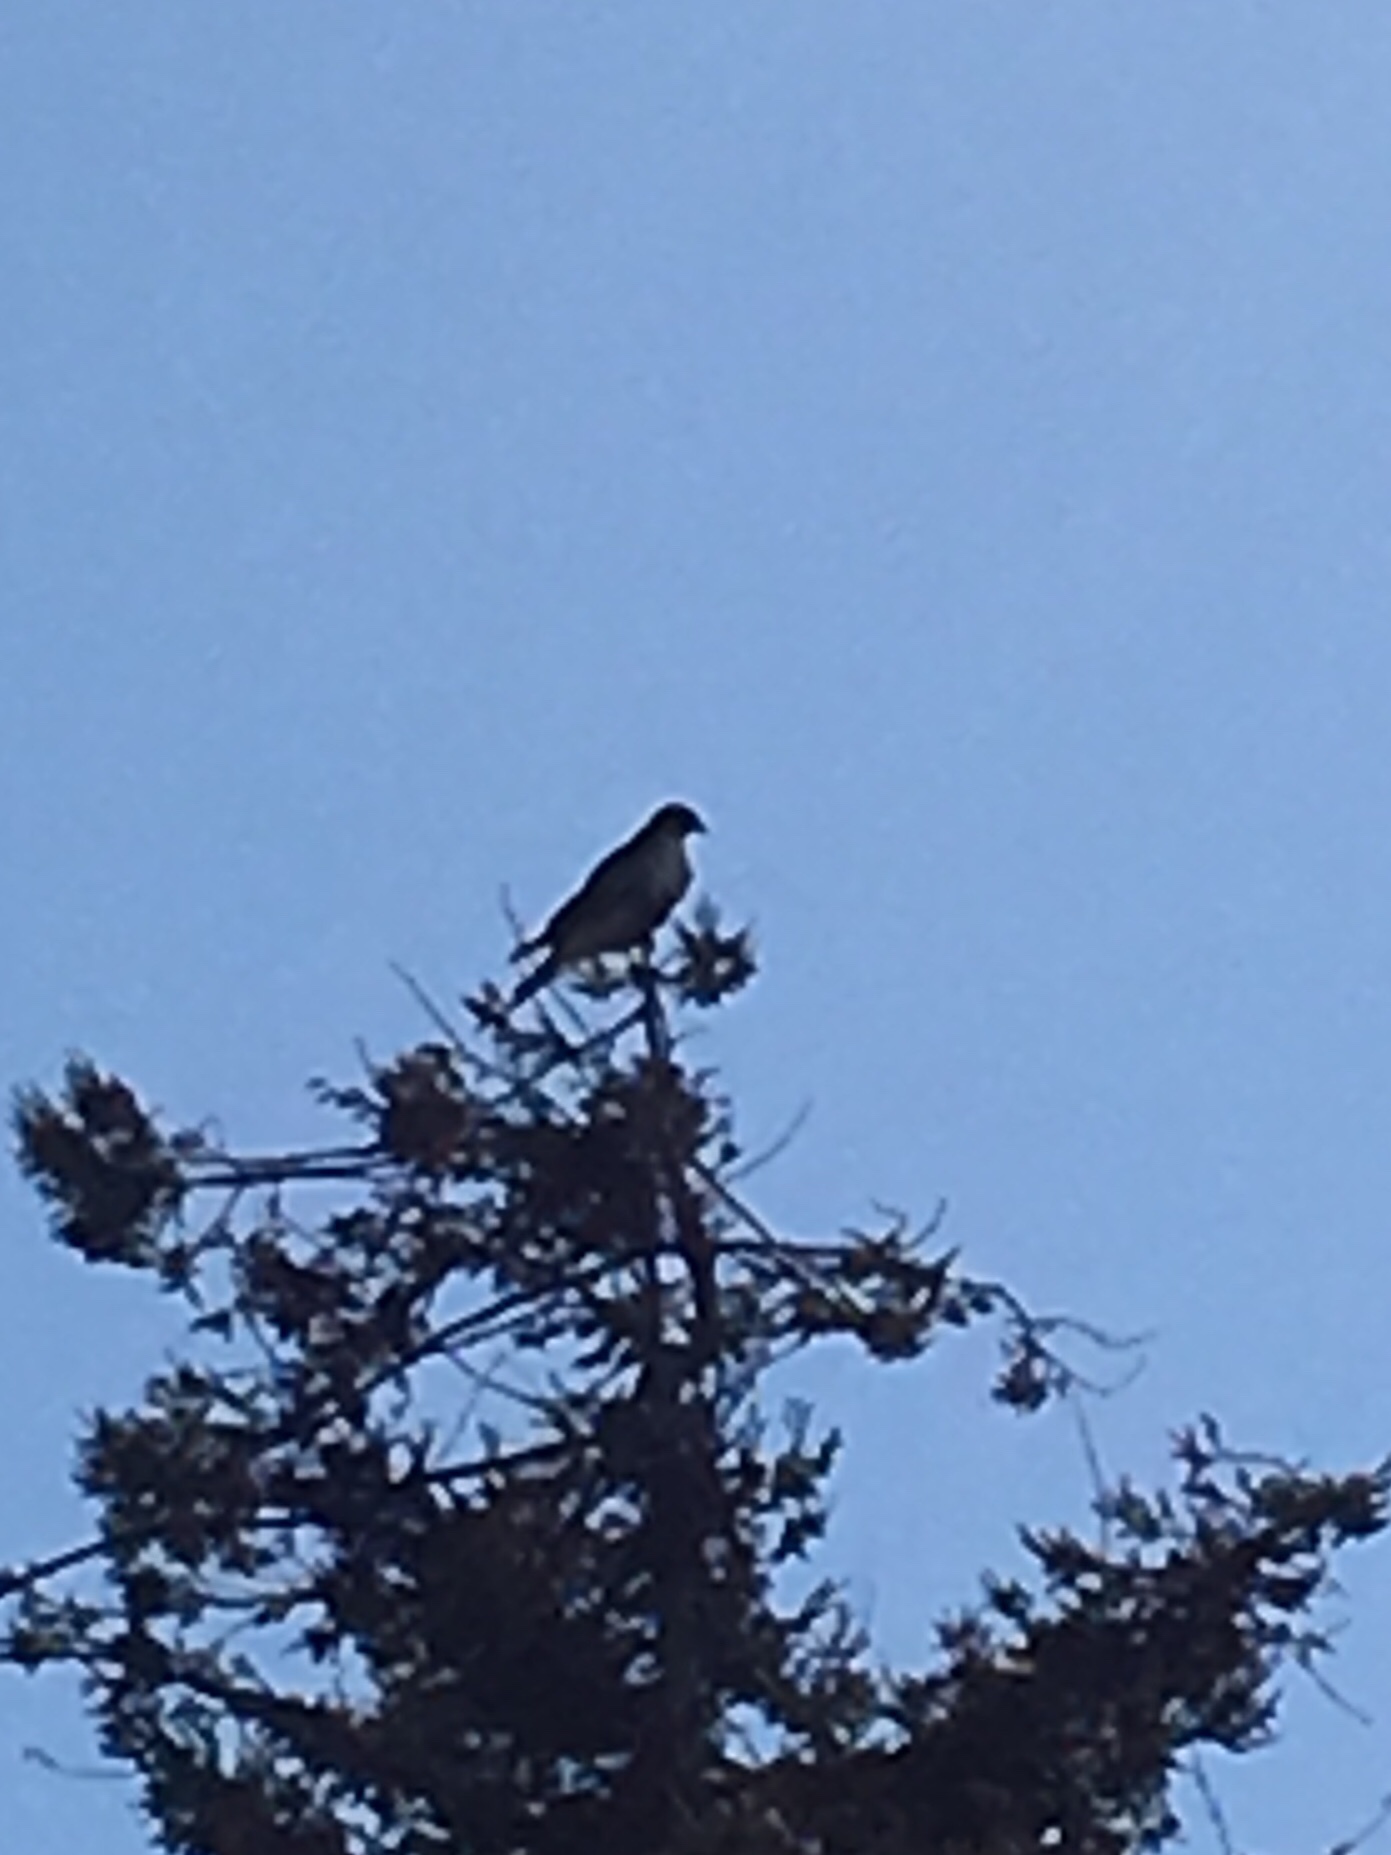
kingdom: Animalia
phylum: Chordata
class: Aves
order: Accipitriformes
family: Accipitridae
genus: Buteo
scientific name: Buteo jamaicensis
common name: Red-tailed hawk
